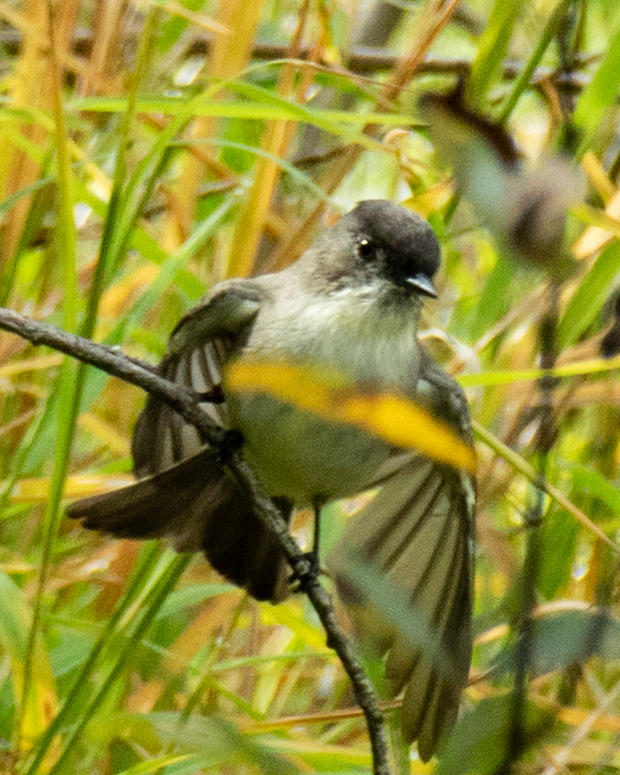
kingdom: Animalia
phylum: Chordata
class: Aves
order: Passeriformes
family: Tyrannidae
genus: Sayornis
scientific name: Sayornis phoebe
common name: Eastern phoebe
